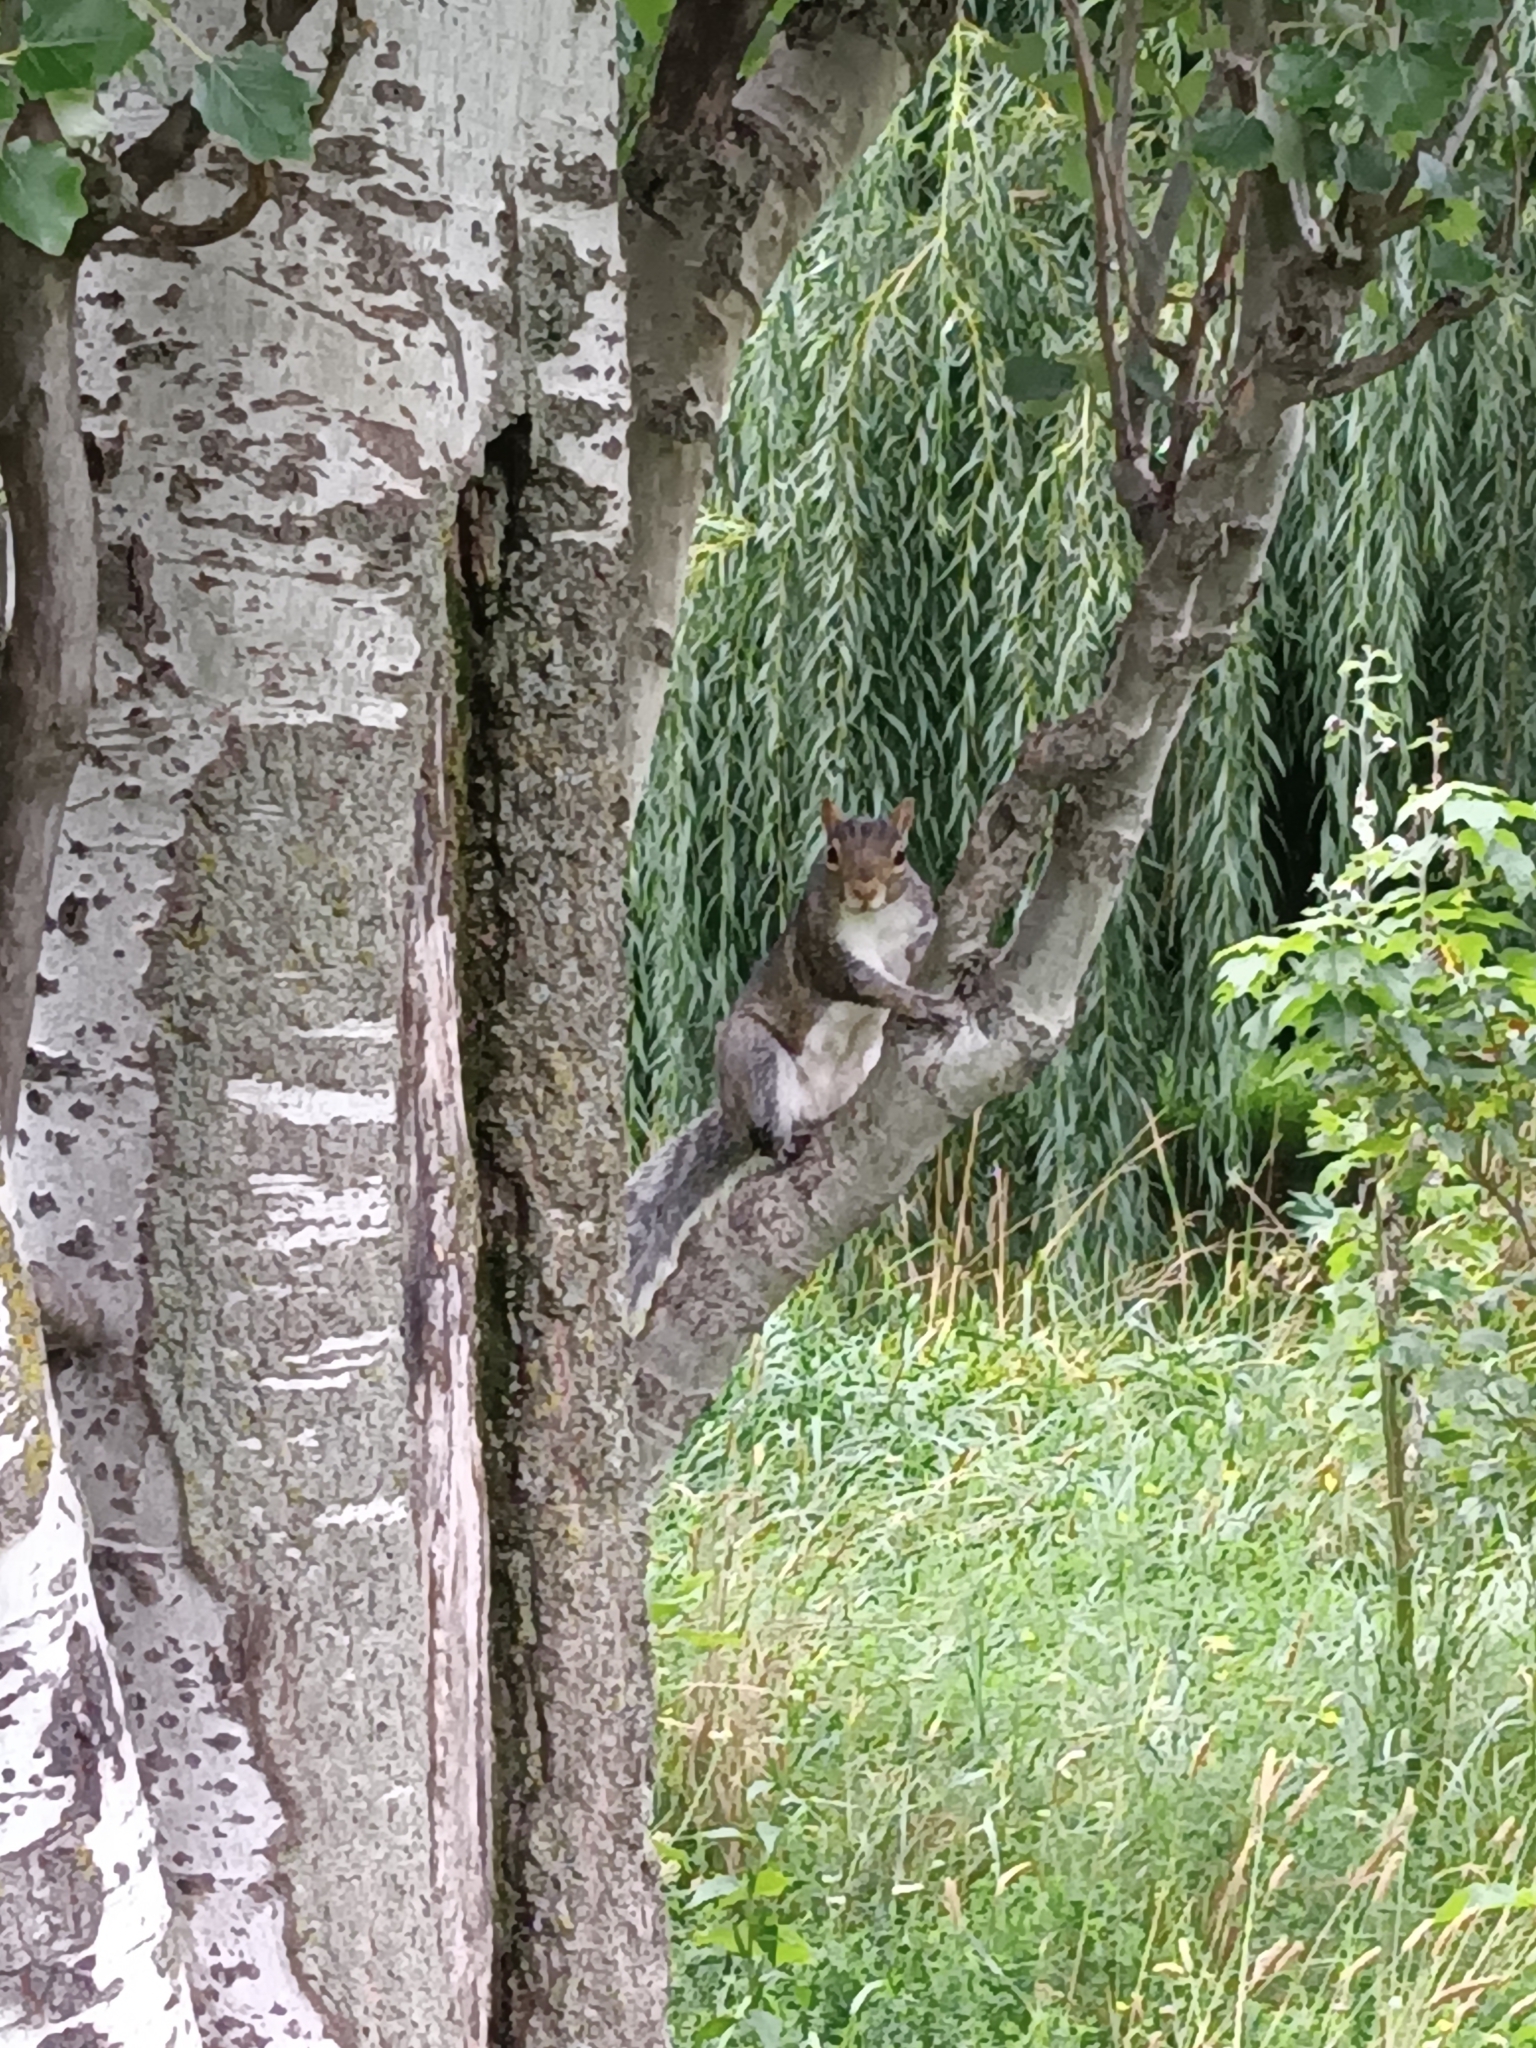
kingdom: Animalia
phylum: Chordata
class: Mammalia
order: Rodentia
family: Sciuridae
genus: Sciurus
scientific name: Sciurus carolinensis
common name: Eastern gray squirrel
